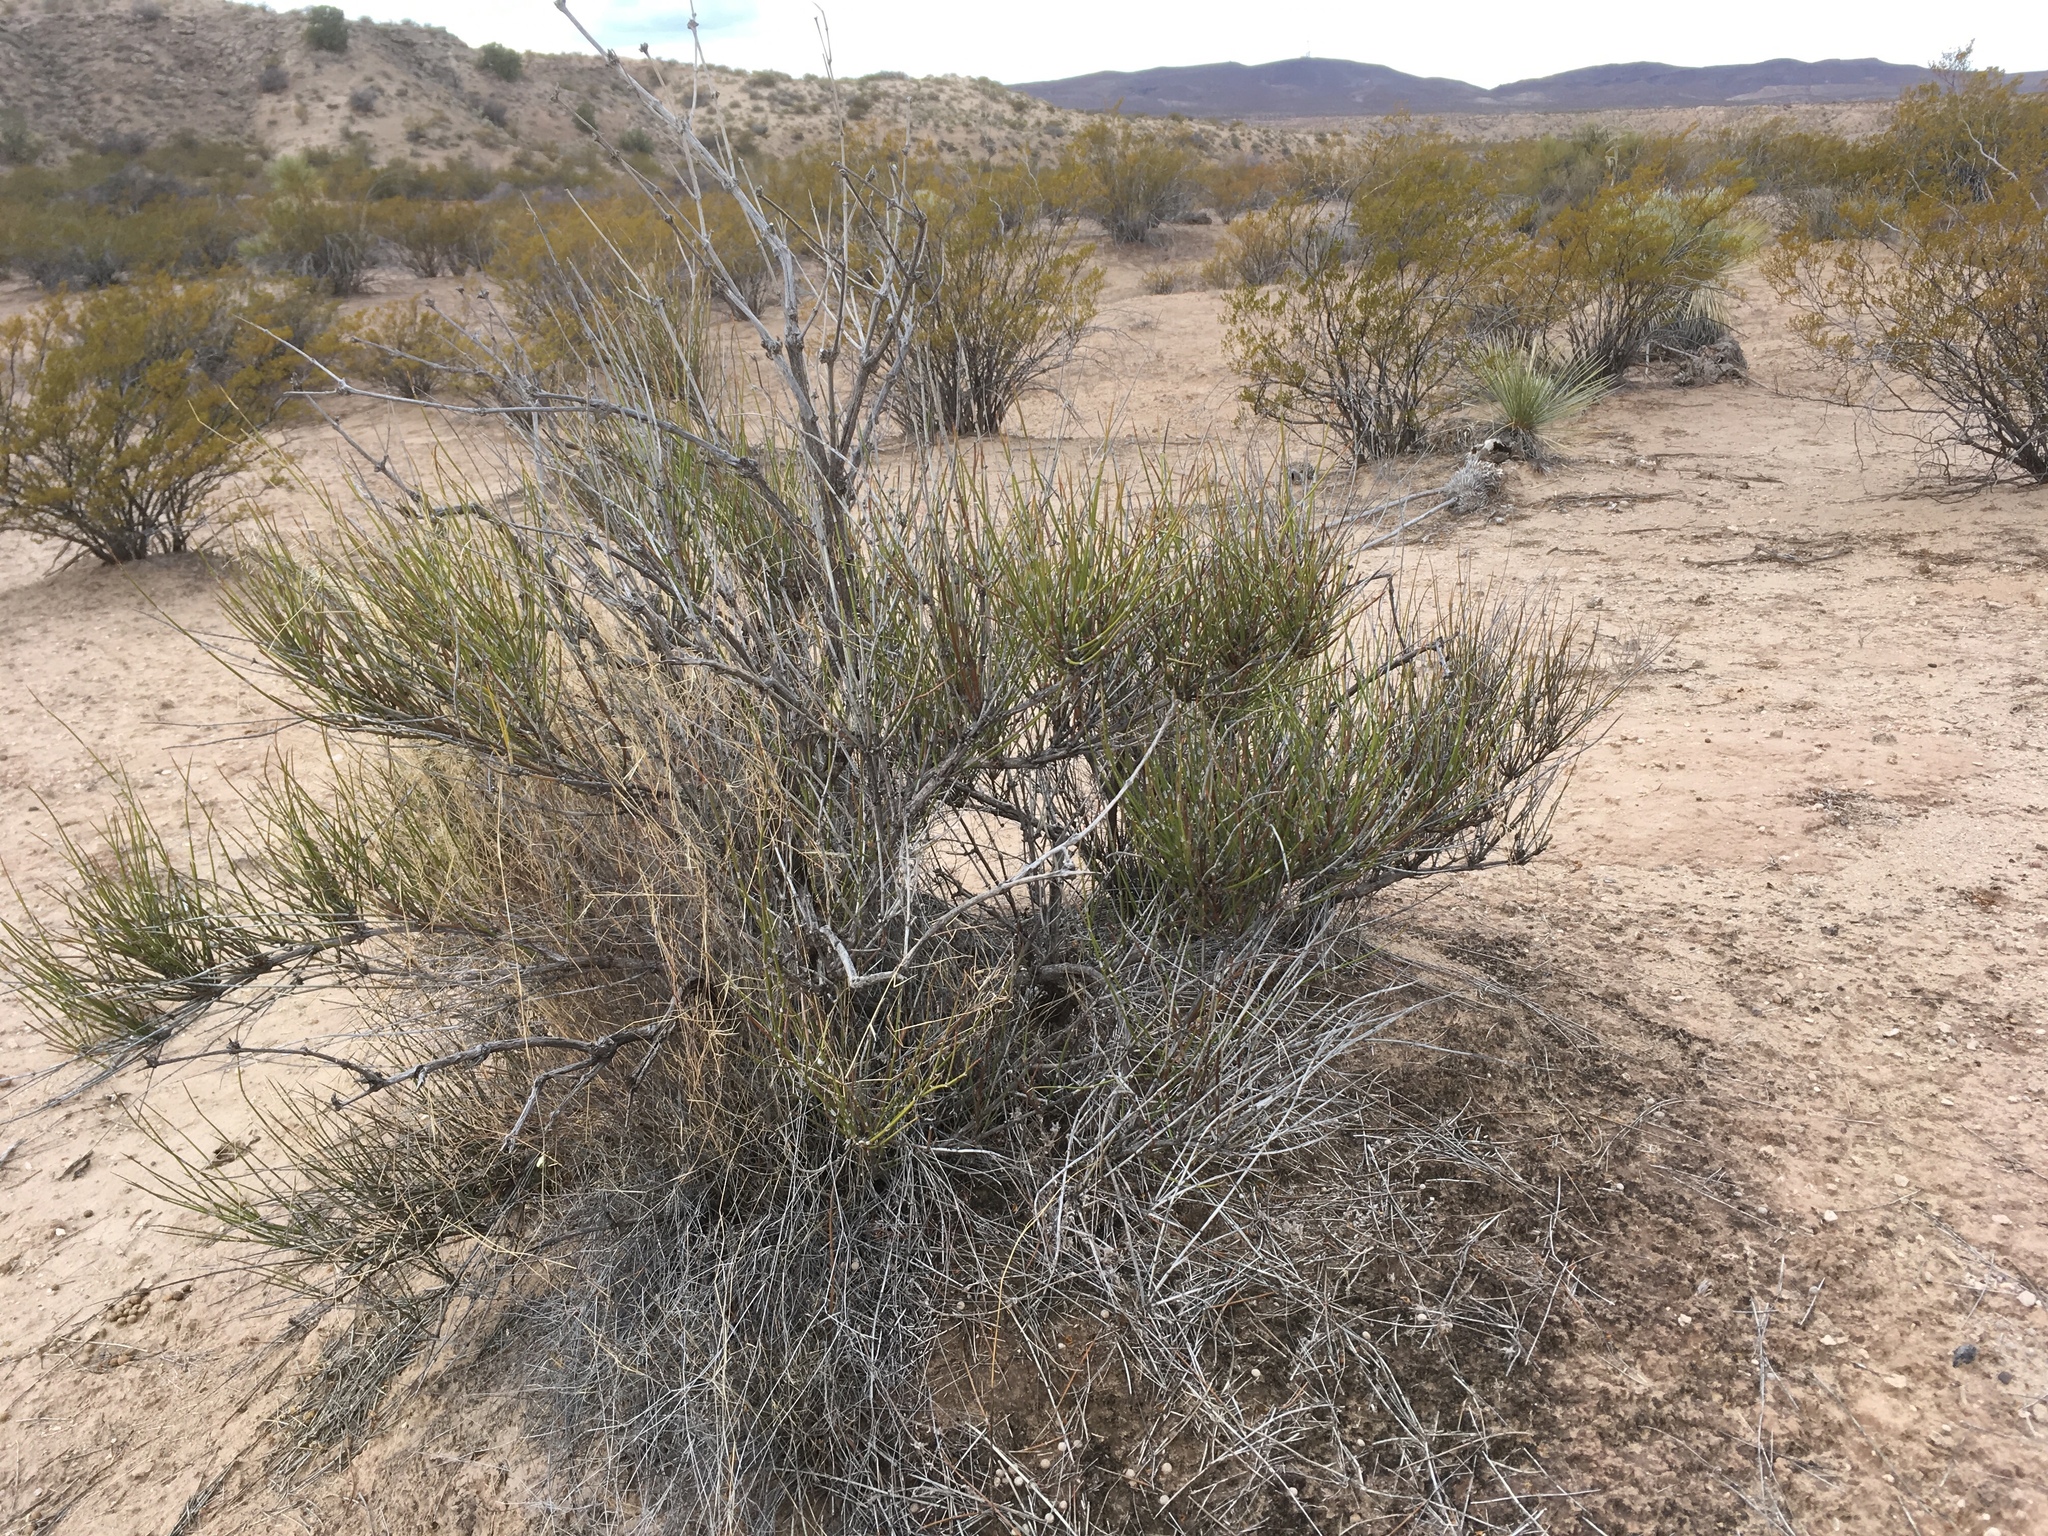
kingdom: Plantae
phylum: Tracheophyta
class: Gnetopsida
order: Ephedrales
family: Ephedraceae
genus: Ephedra
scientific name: Ephedra trifurca
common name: Mexican-tea
